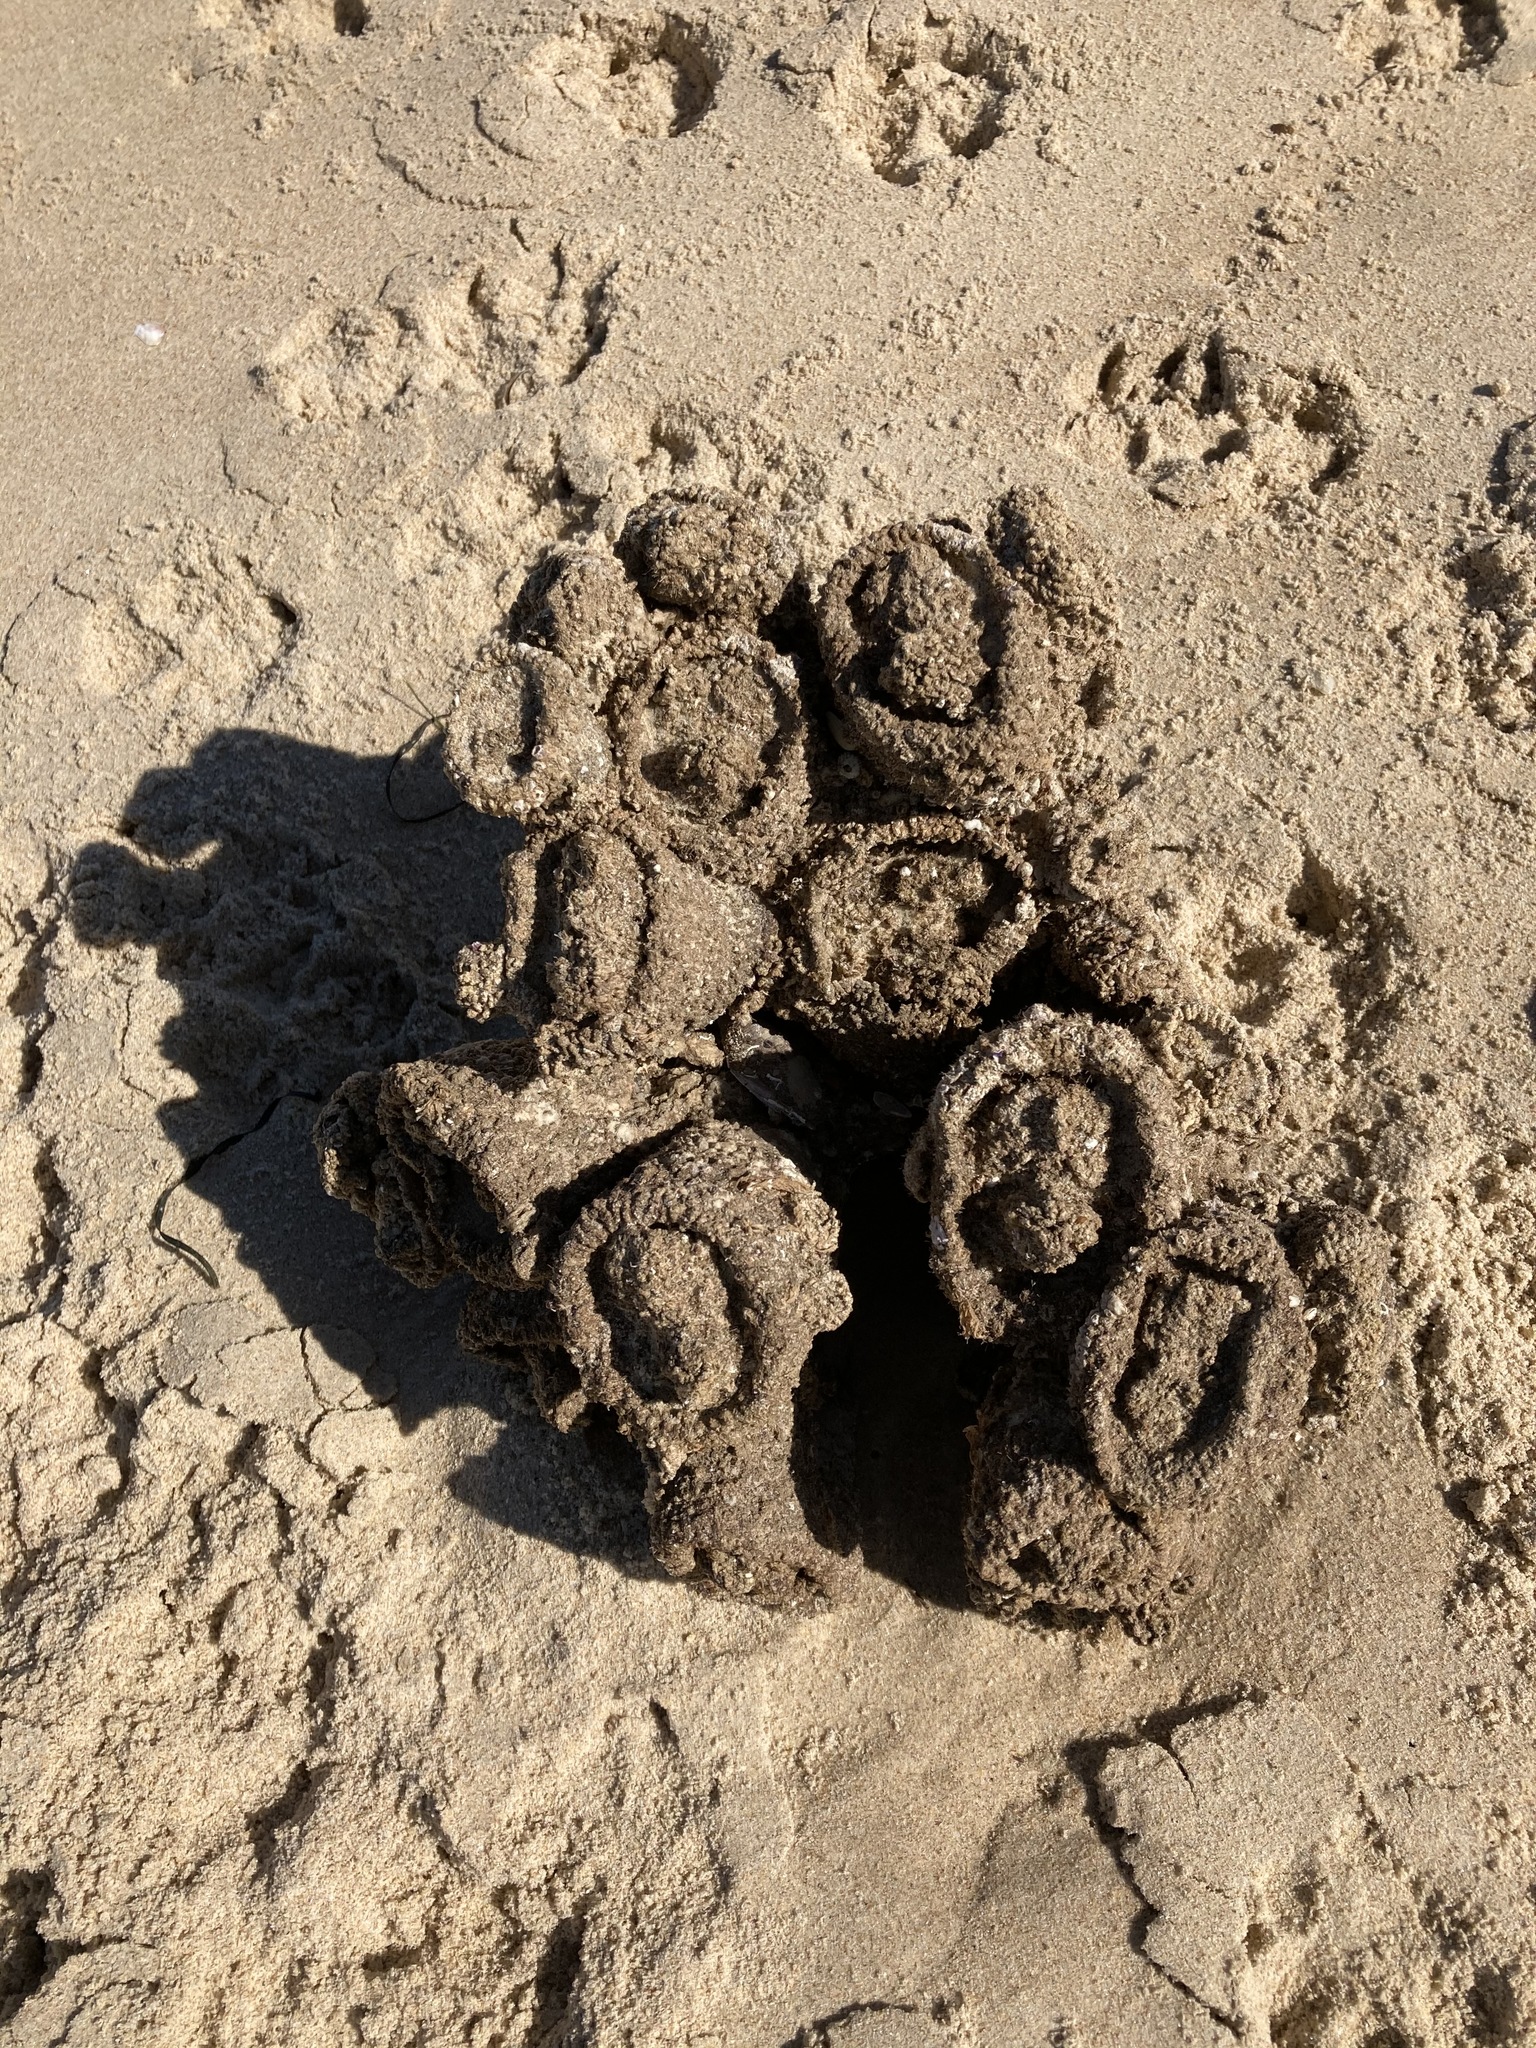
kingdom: Animalia
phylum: Chordata
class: Ascidiacea
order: Stolidobranchia
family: Pyuridae
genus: Pyura
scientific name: Pyura praeputialis
